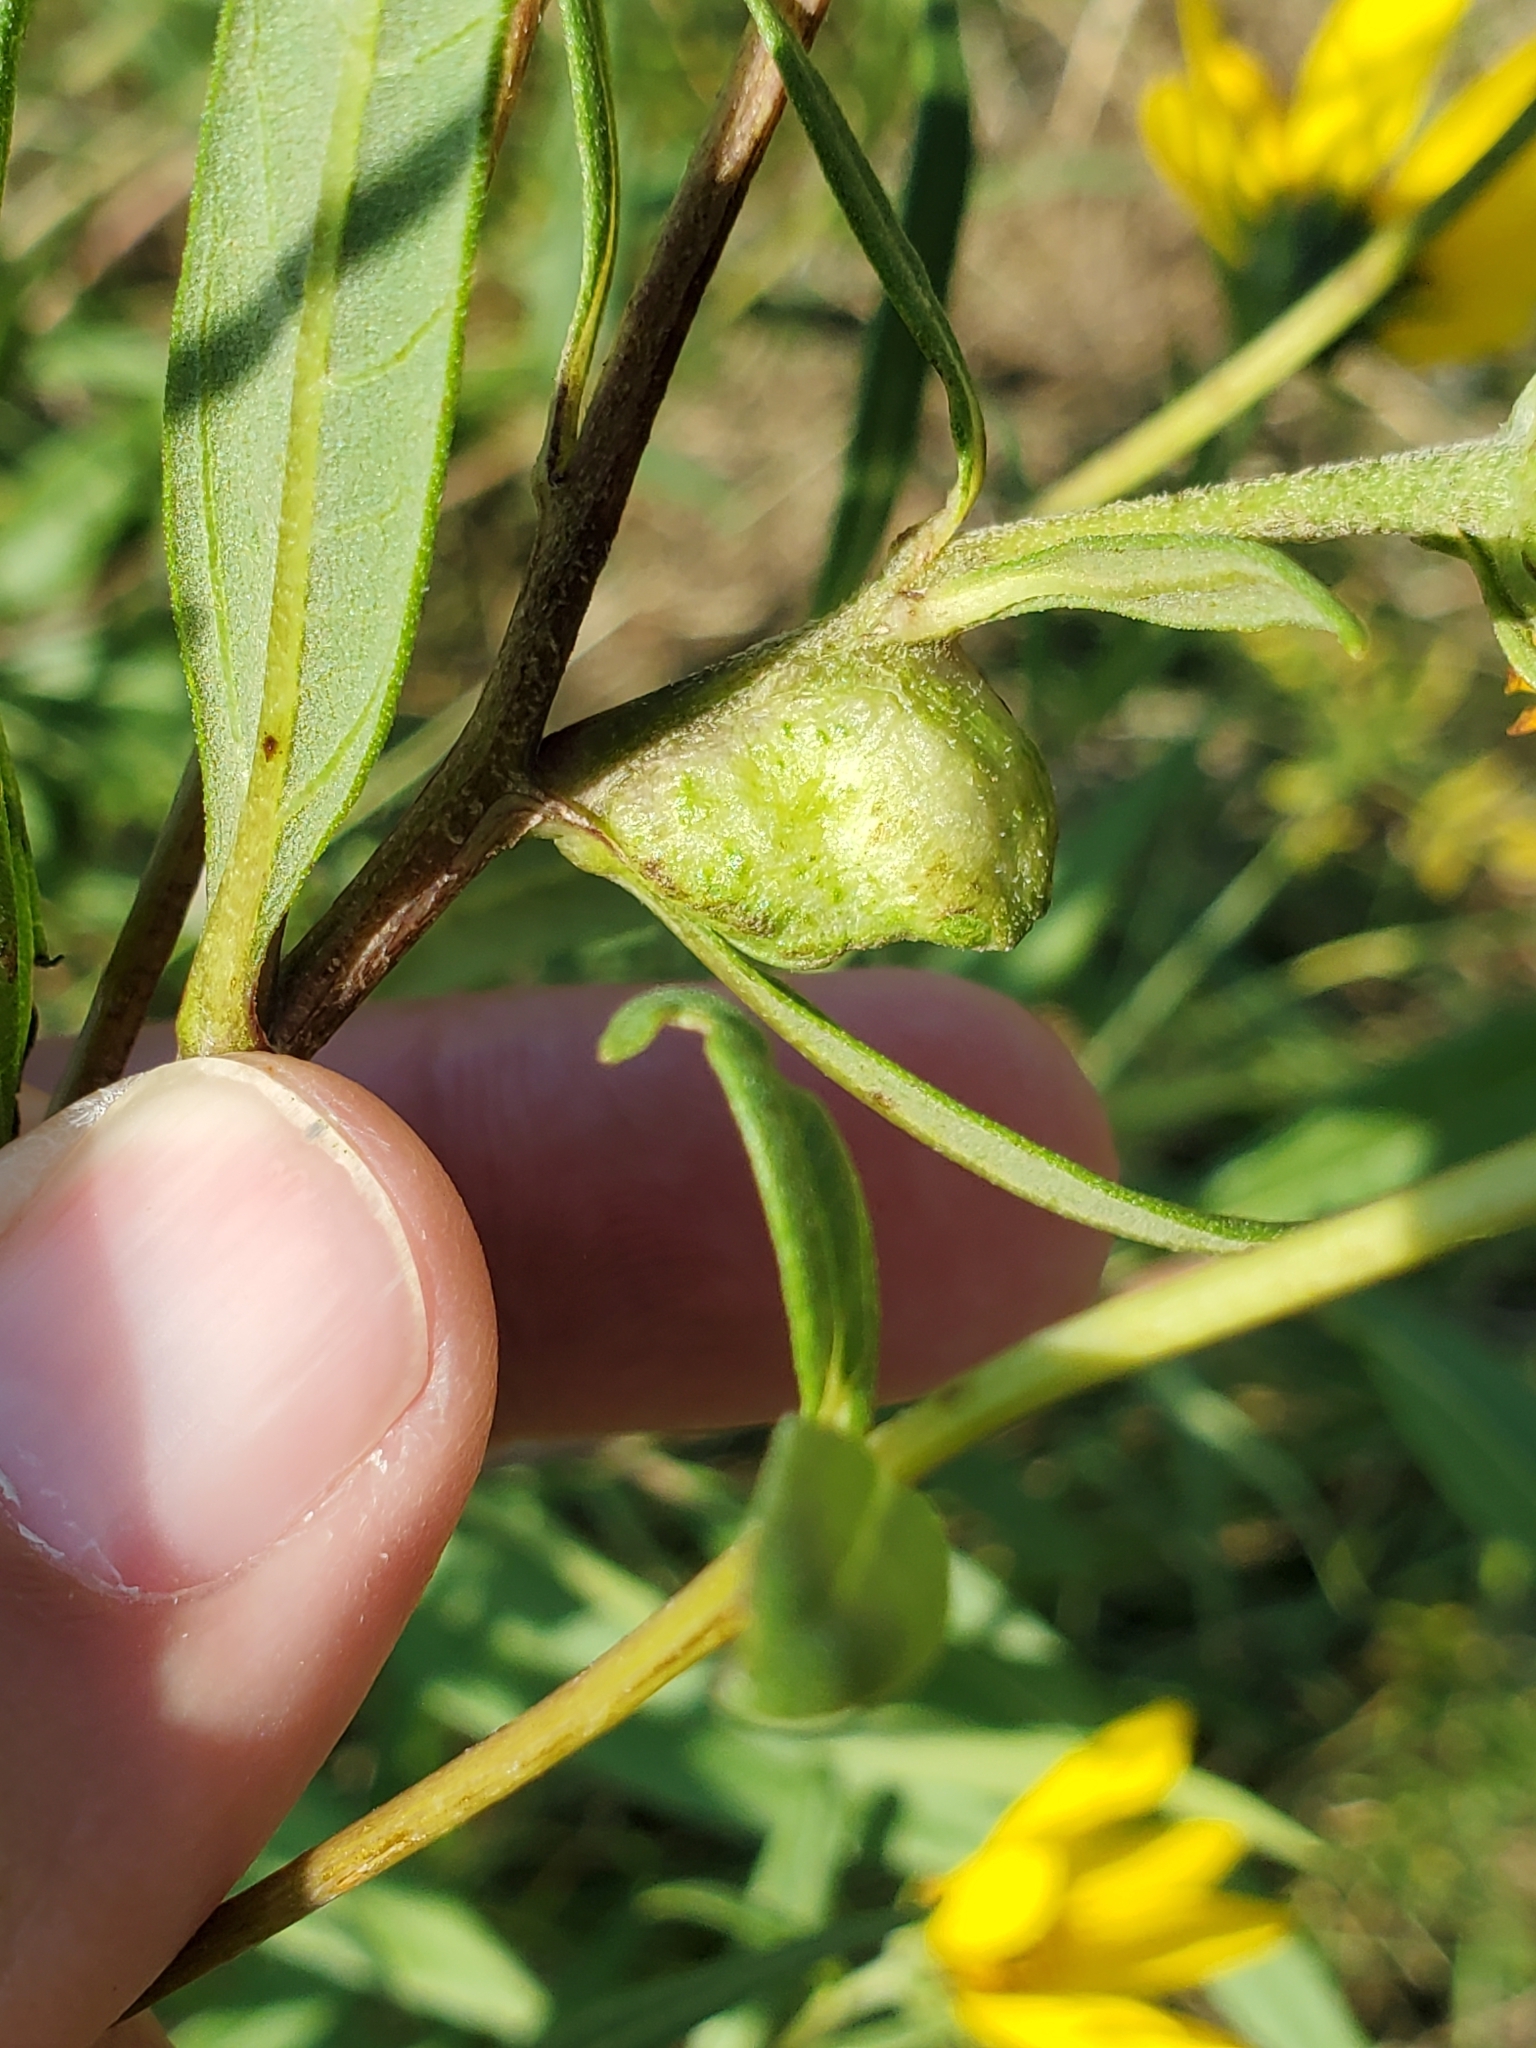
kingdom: Animalia
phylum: Arthropoda
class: Insecta
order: Diptera
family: Cecidomyiidae
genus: Asphondylia
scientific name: Asphondylia helianthiglobulus
